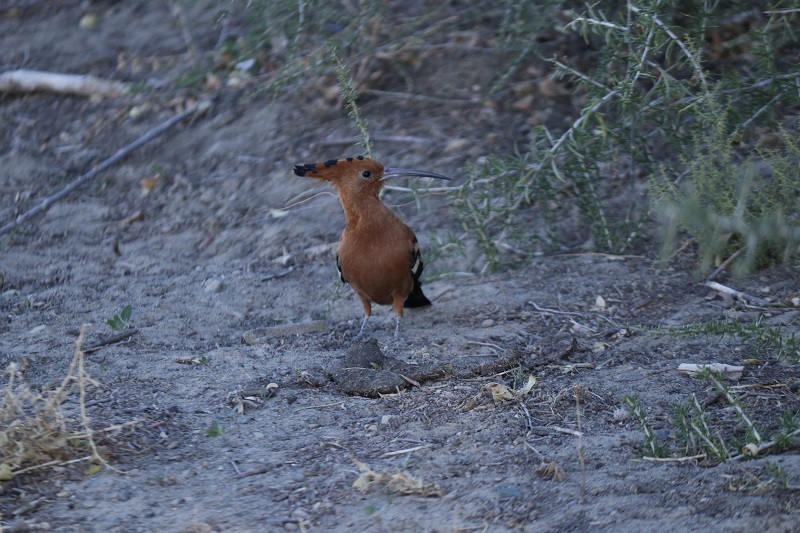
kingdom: Animalia
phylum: Chordata
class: Aves
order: Bucerotiformes
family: Upupidae
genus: Upupa
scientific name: Upupa africana
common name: African hoopoe
